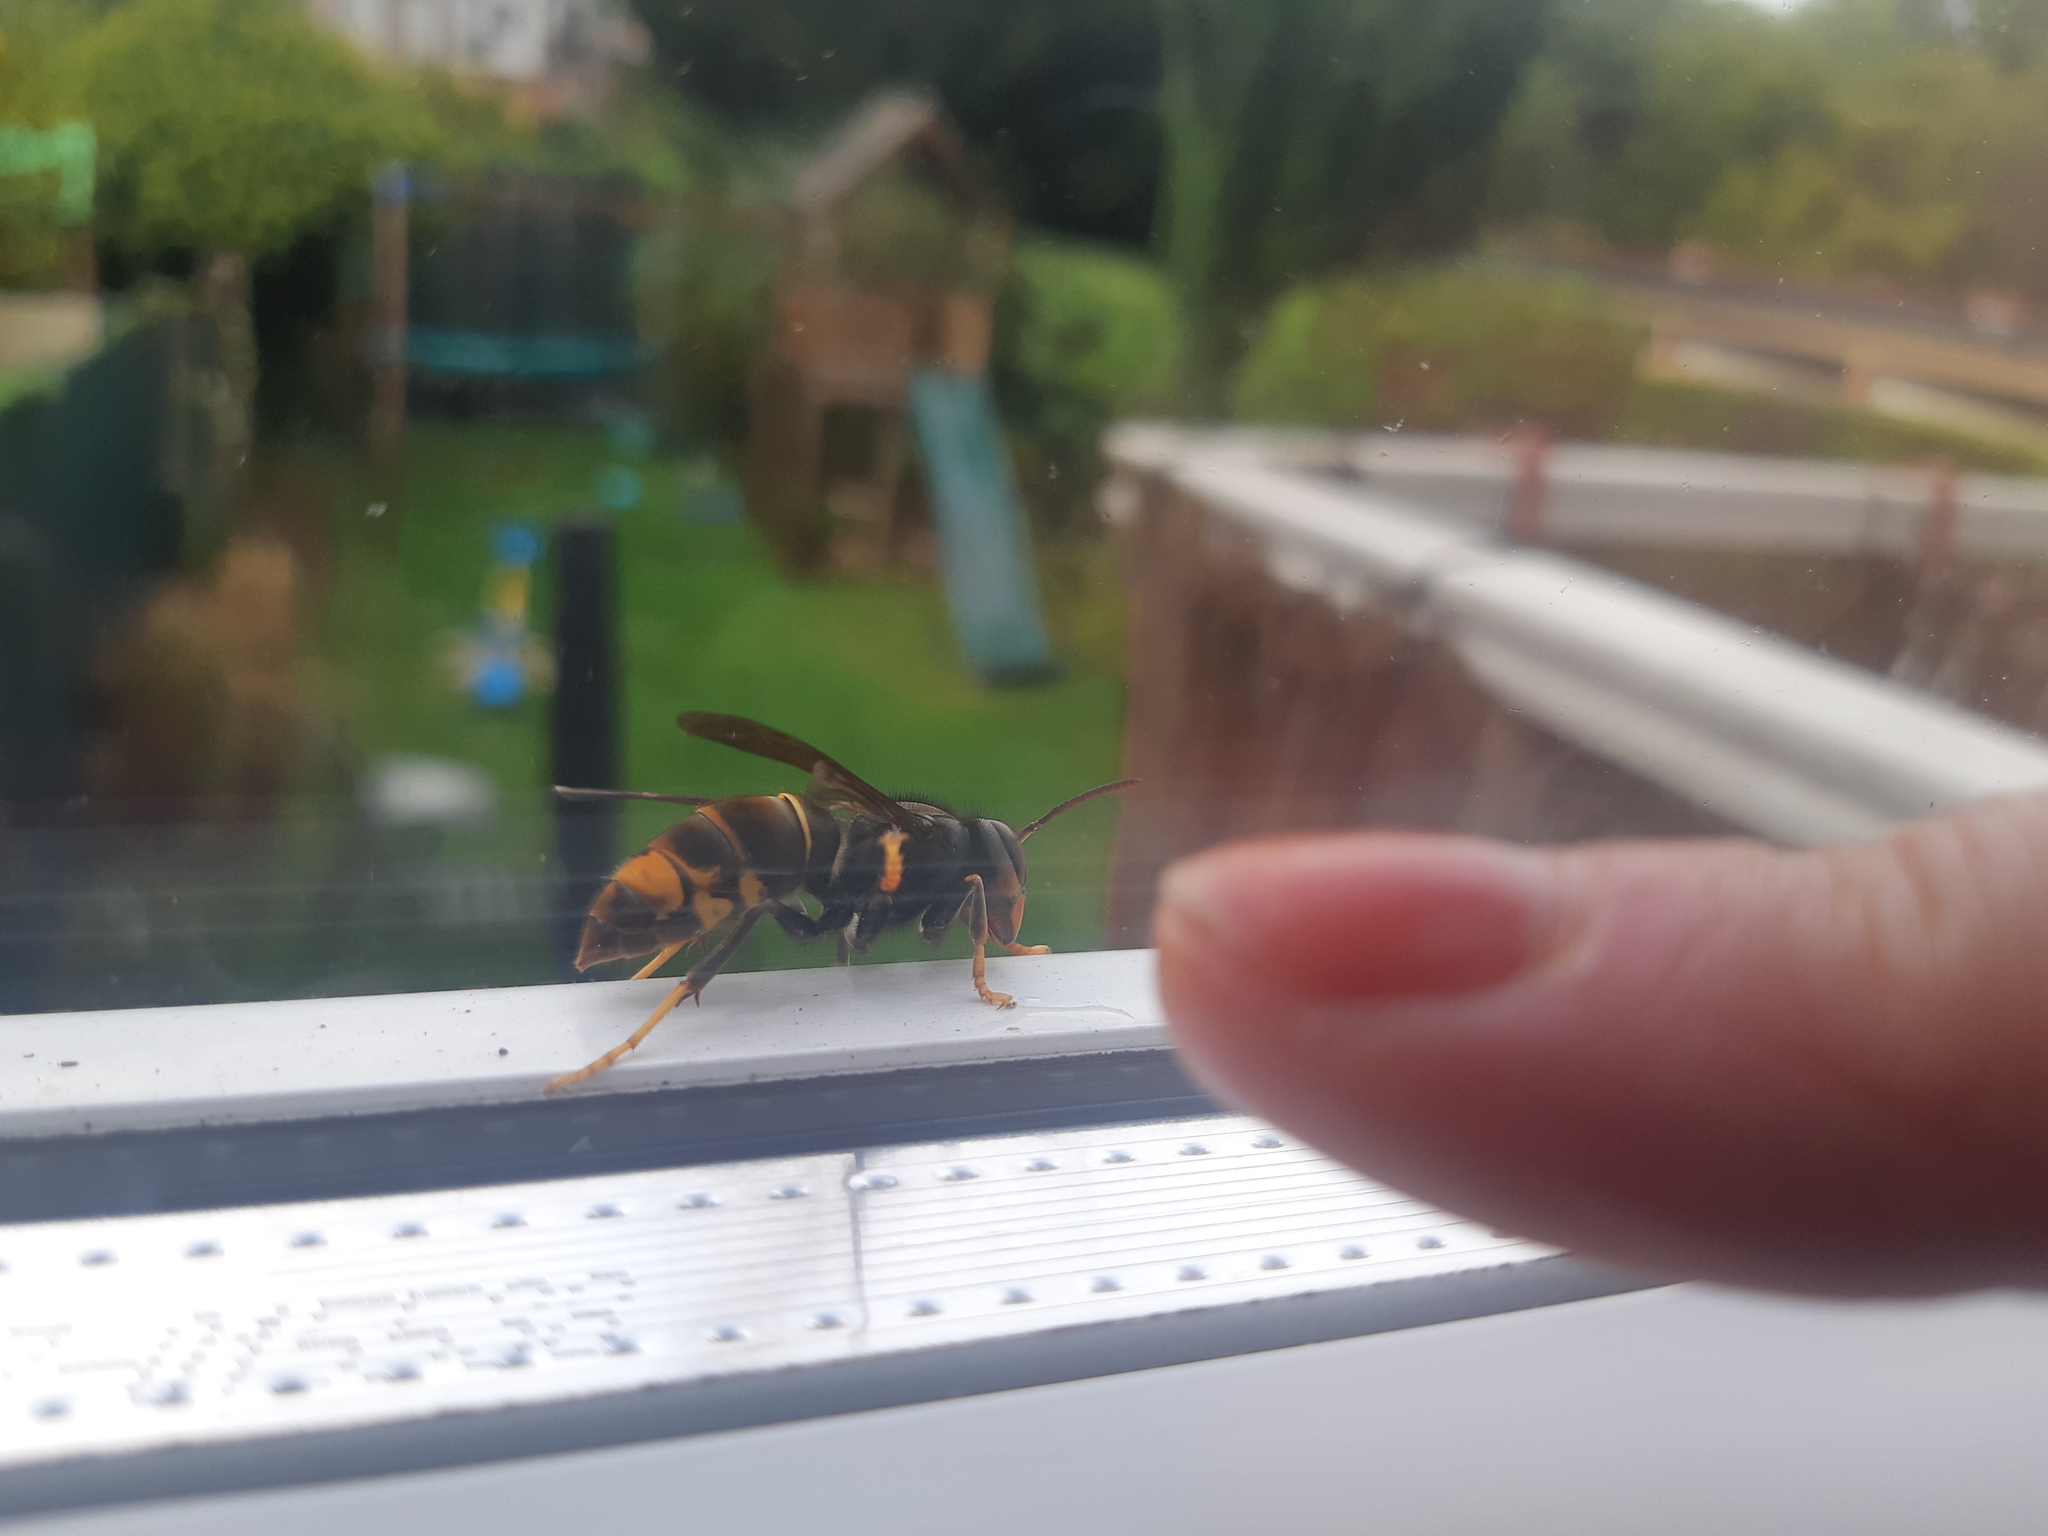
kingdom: Animalia
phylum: Arthropoda
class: Insecta
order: Hymenoptera
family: Vespidae
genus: Vespa
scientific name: Vespa velutina
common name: Asian hornet
